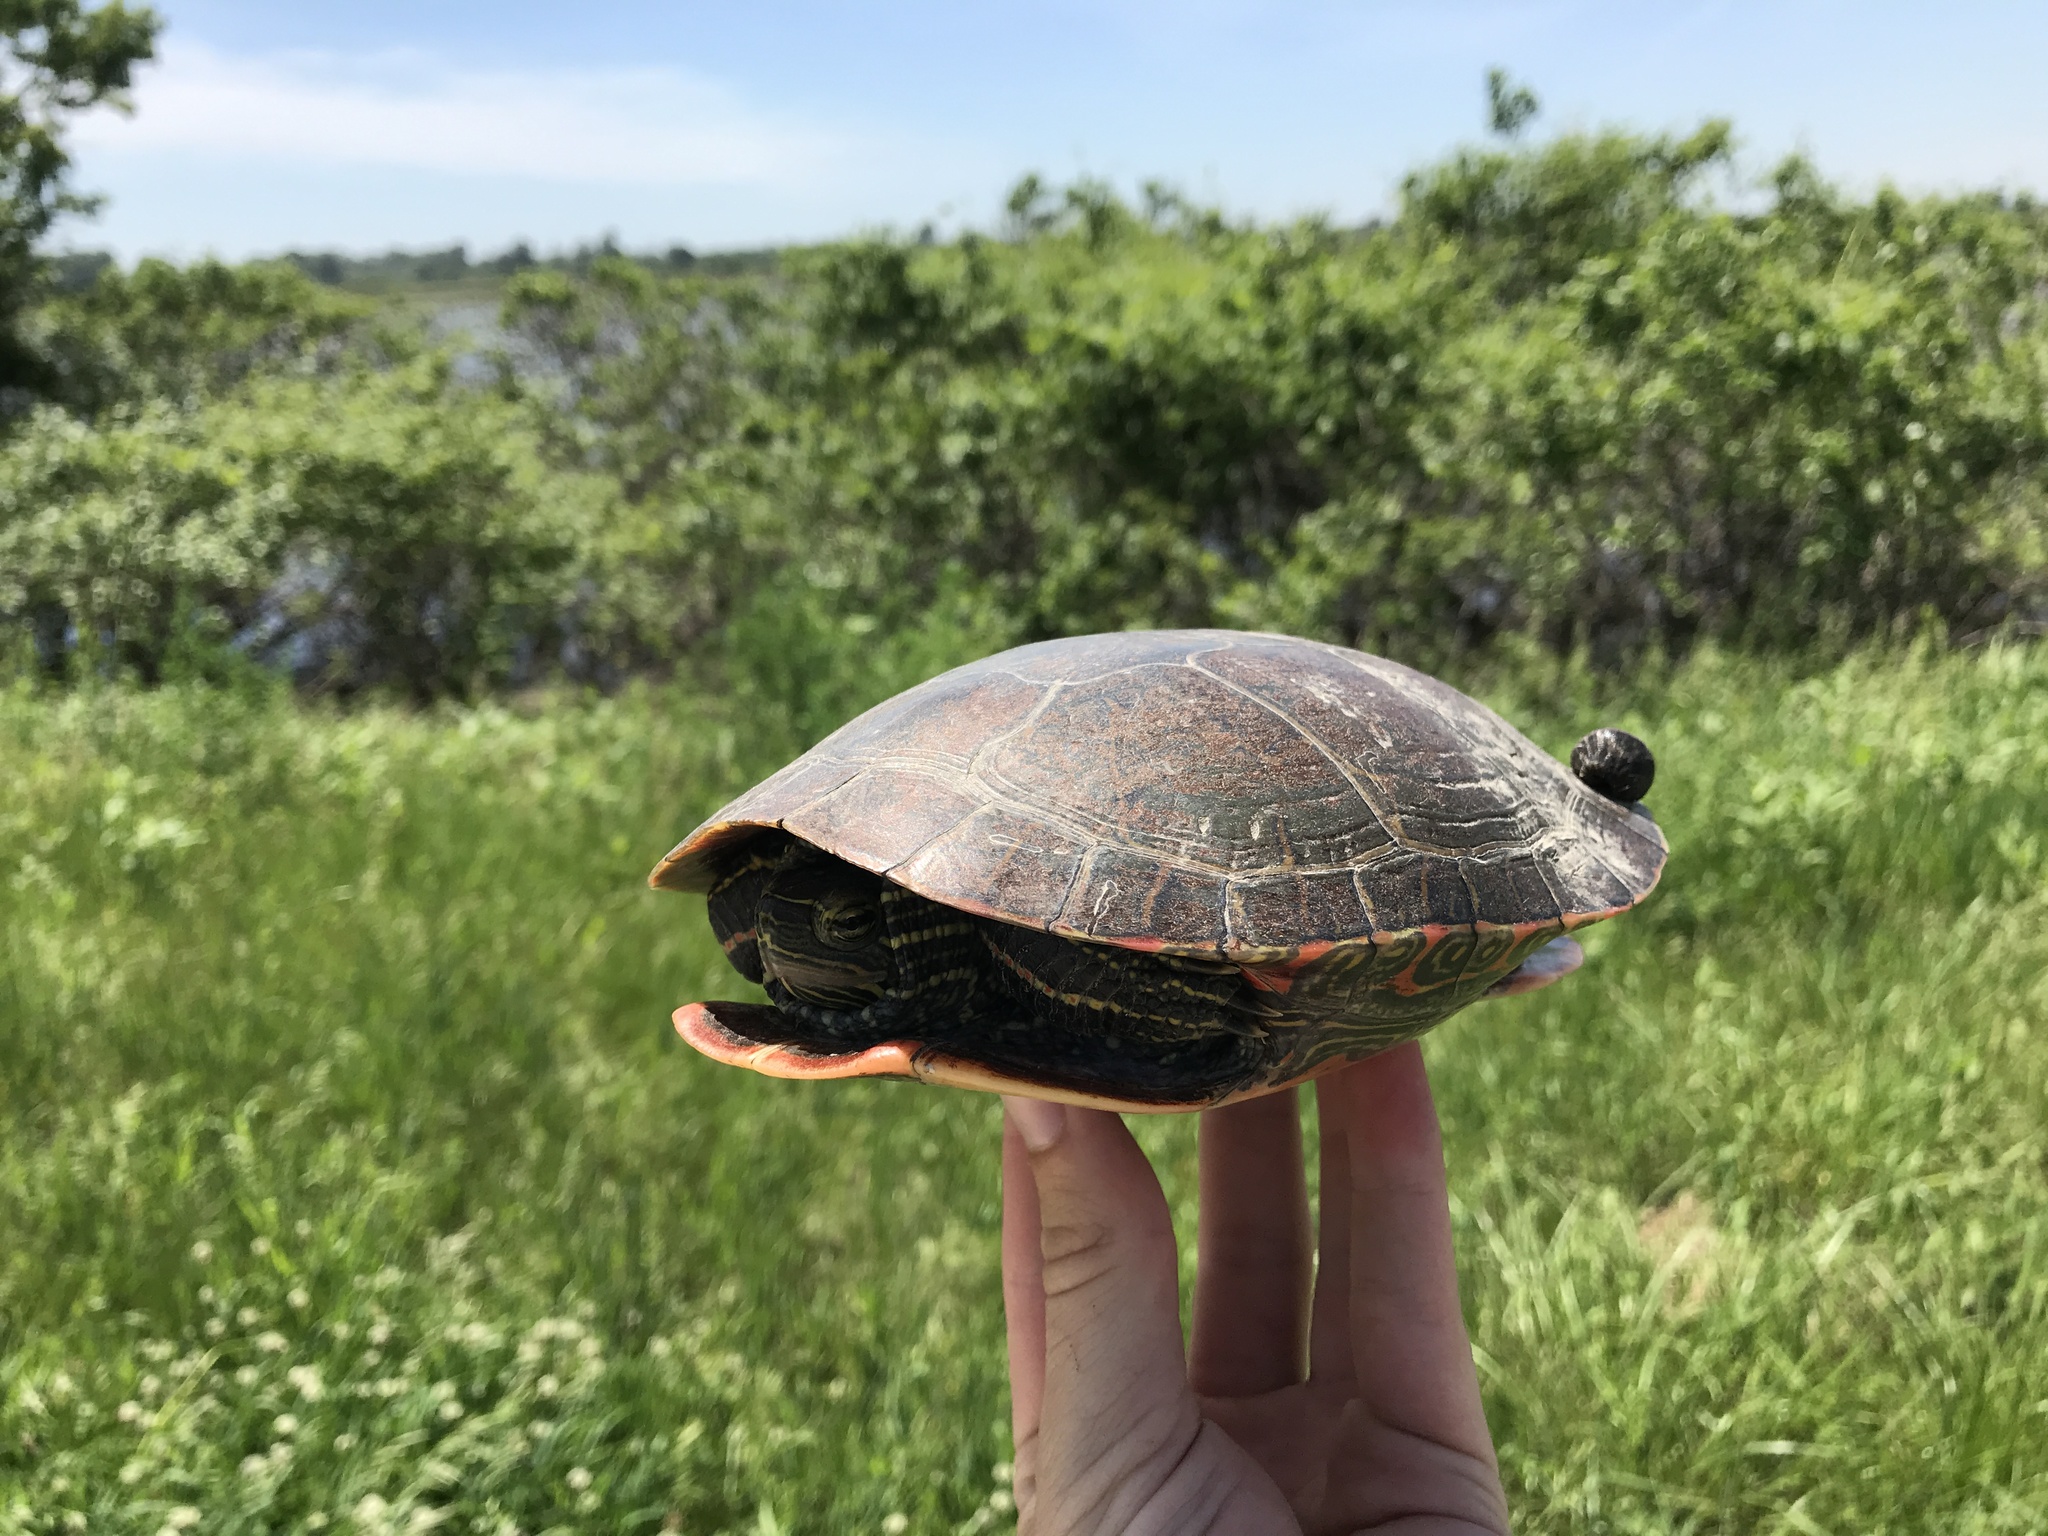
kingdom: Animalia
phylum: Chordata
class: Testudines
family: Emydidae
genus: Chrysemys
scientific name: Chrysemys picta
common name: Painted turtle
